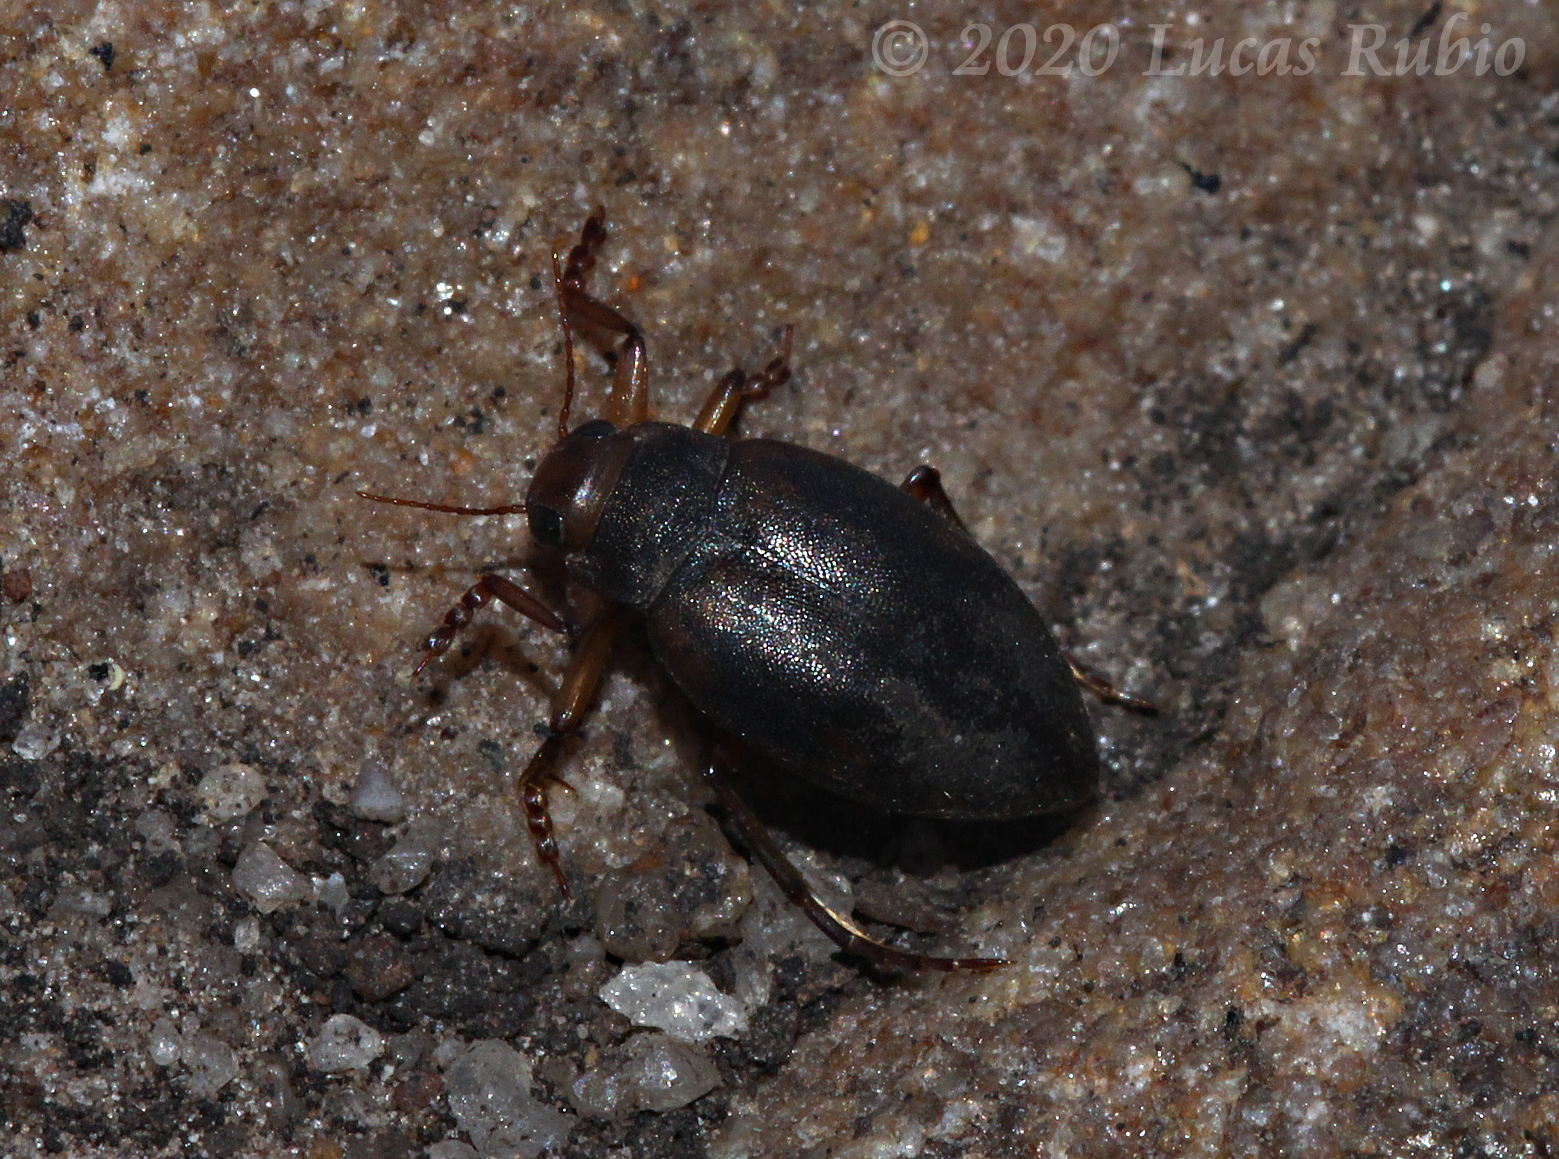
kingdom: Animalia
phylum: Arthropoda
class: Insecta
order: Coleoptera
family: Dytiscidae
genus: Vatellus
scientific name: Vatellus wheeleri
